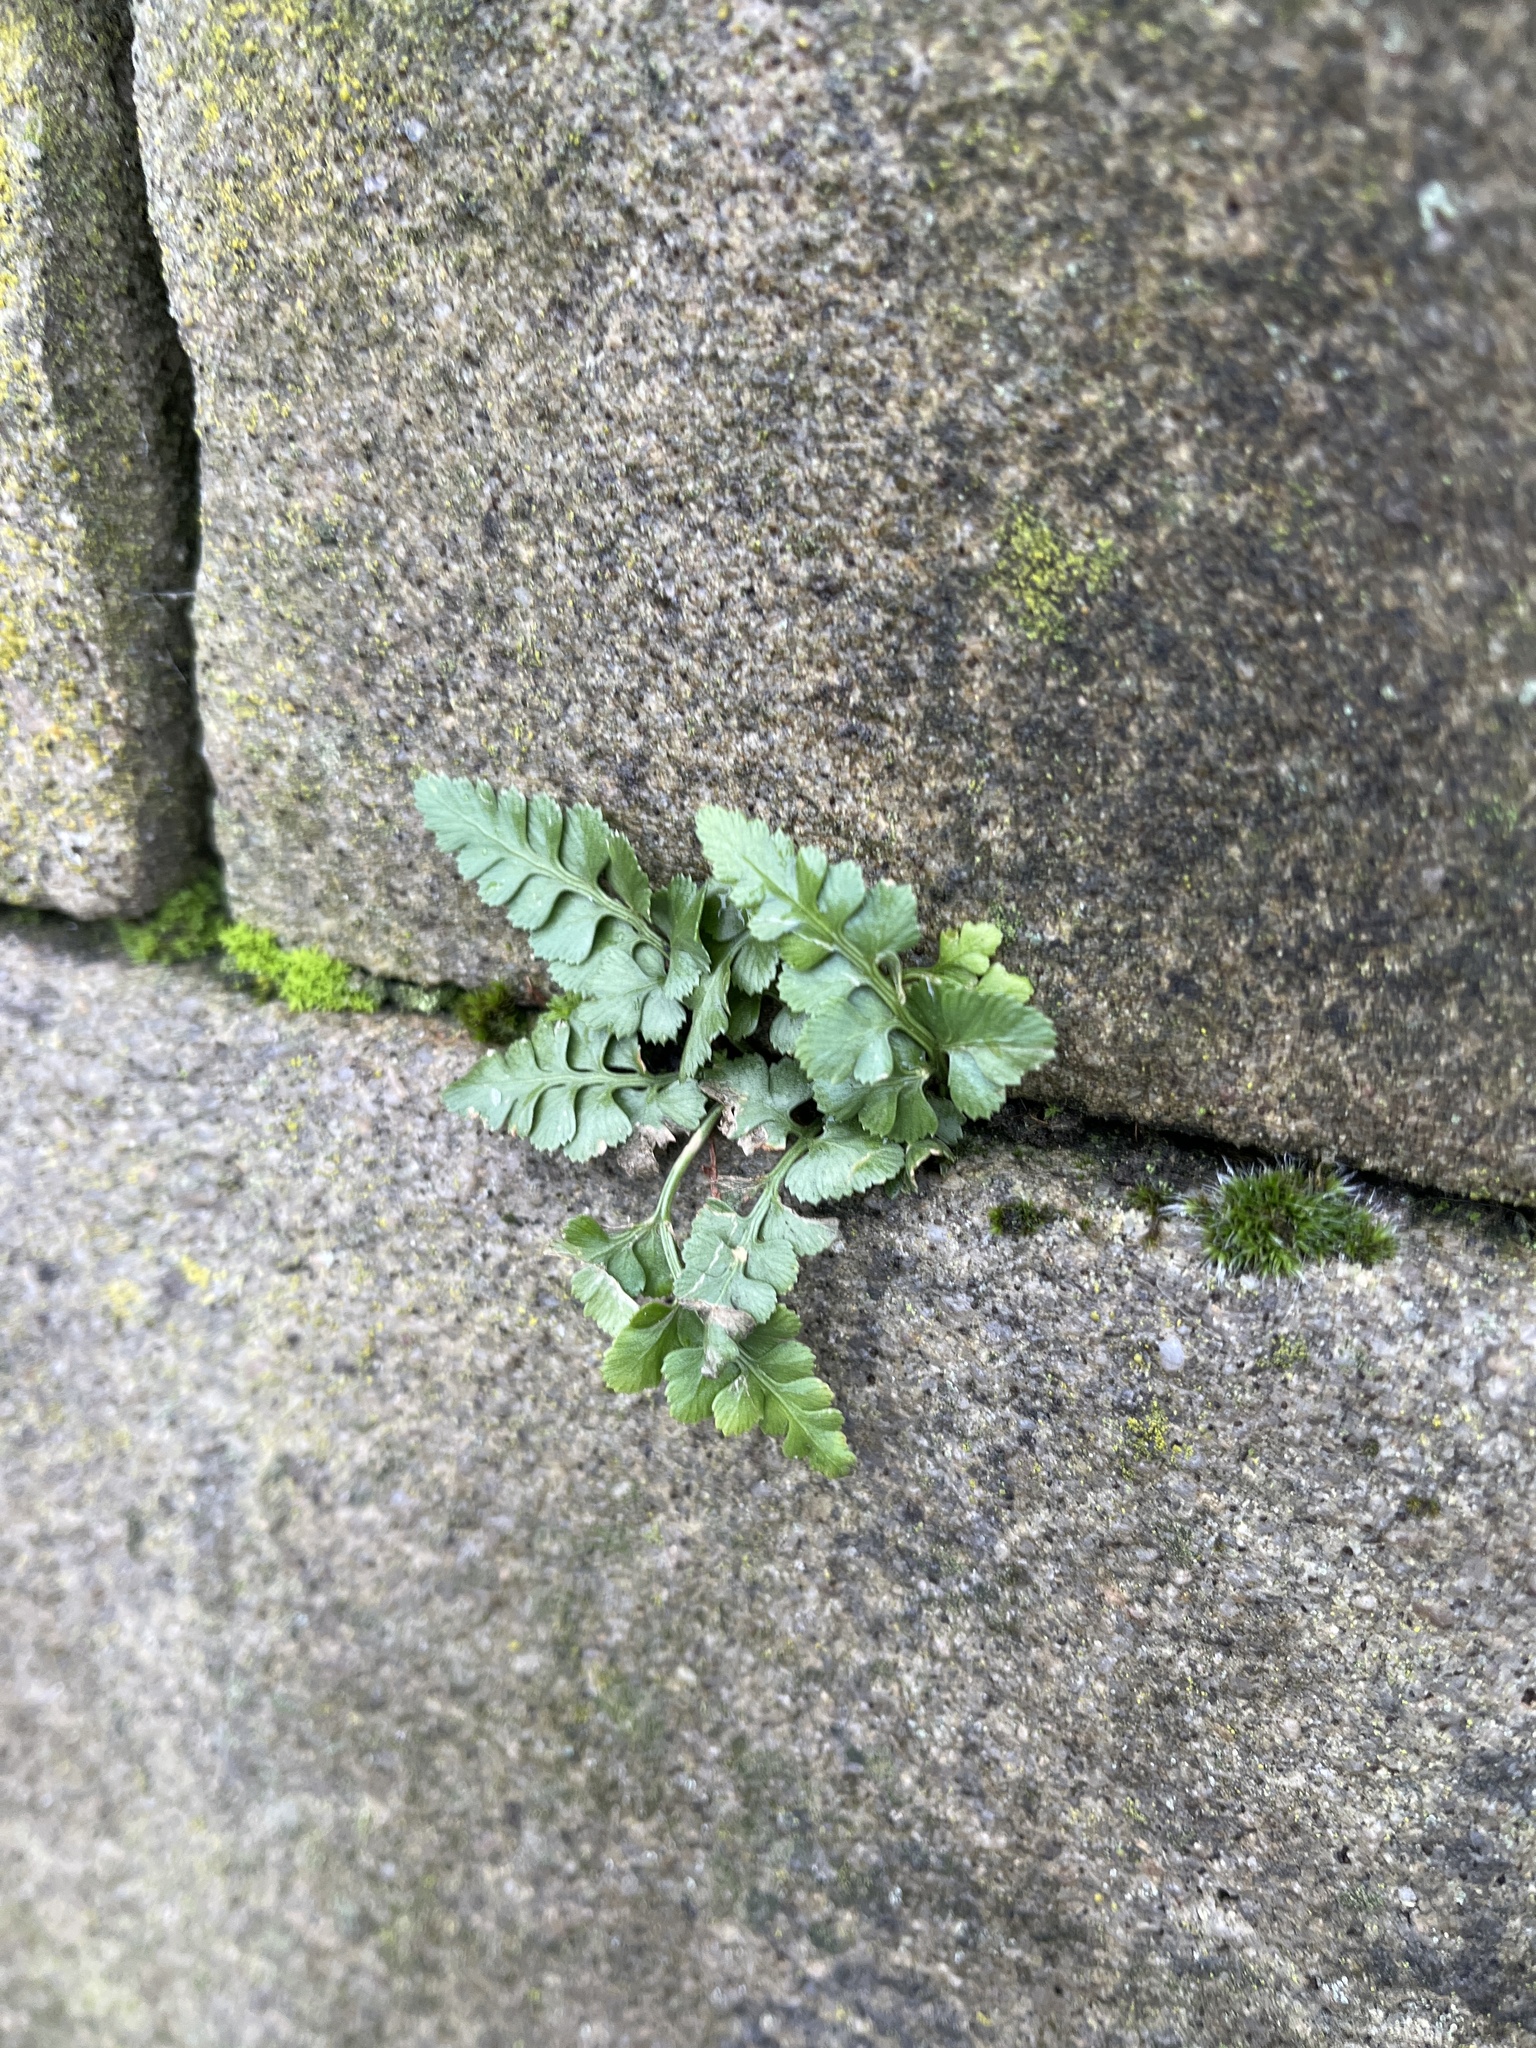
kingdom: Plantae
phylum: Tracheophyta
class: Polypodiopsida
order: Polypodiales
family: Aspleniaceae
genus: Asplenium
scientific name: Asplenium adiantum-nigrum
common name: Black spleenwort
